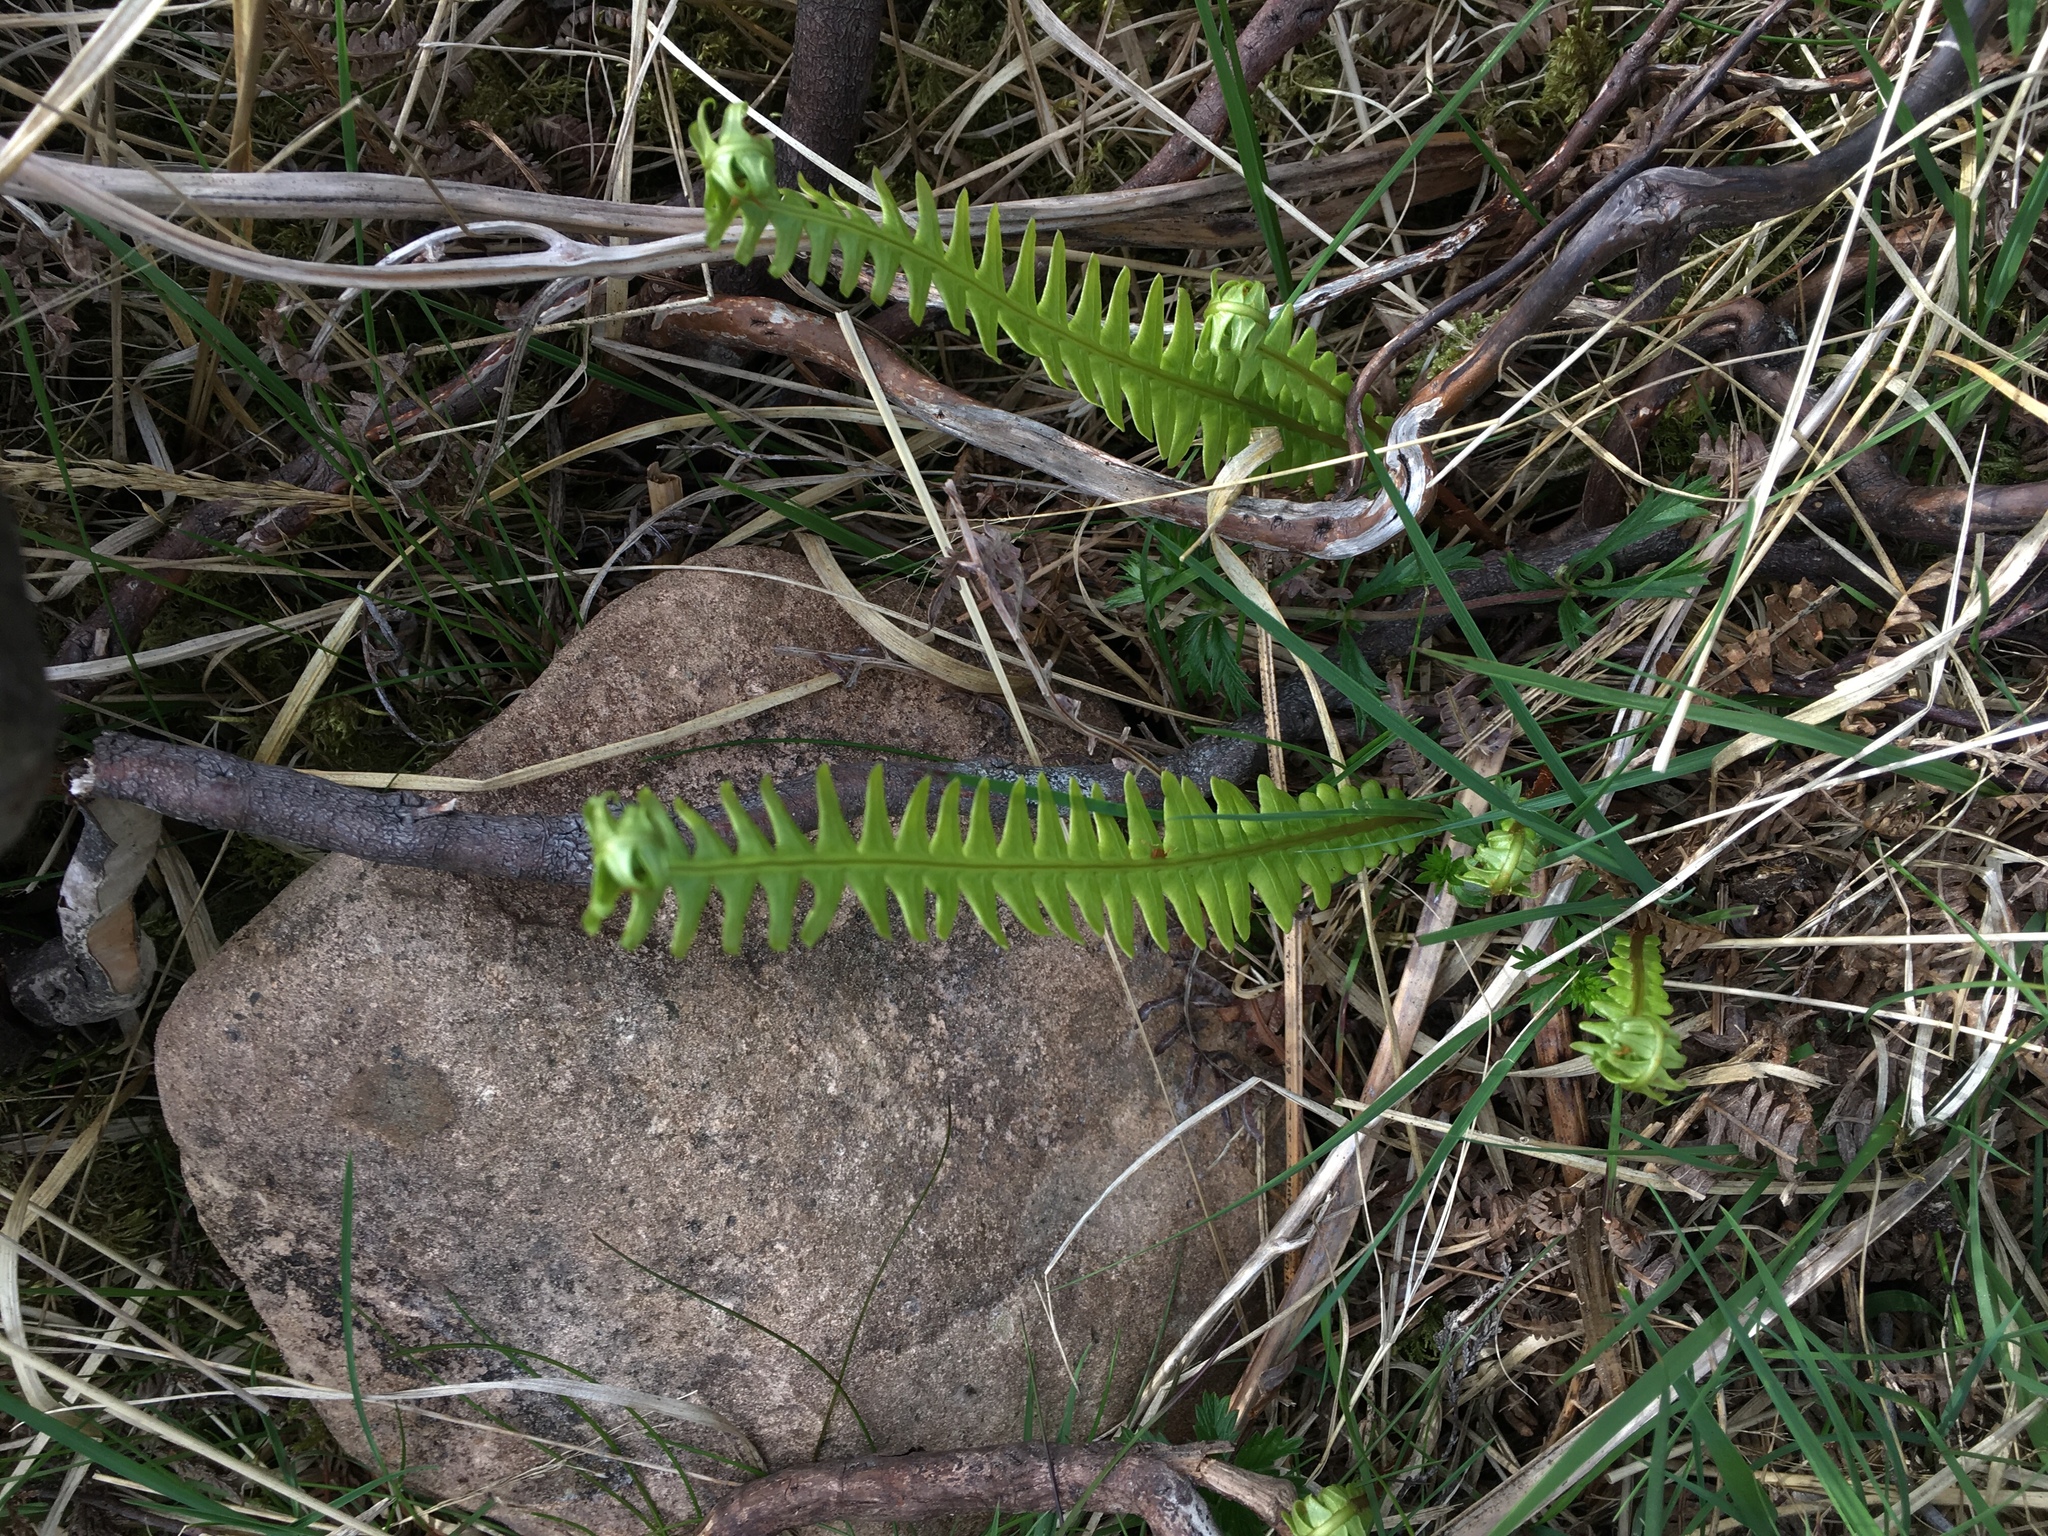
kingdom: Plantae
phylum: Tracheophyta
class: Polypodiopsida
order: Polypodiales
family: Blechnaceae
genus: Struthiopteris
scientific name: Struthiopteris spicant
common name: Deer fern
